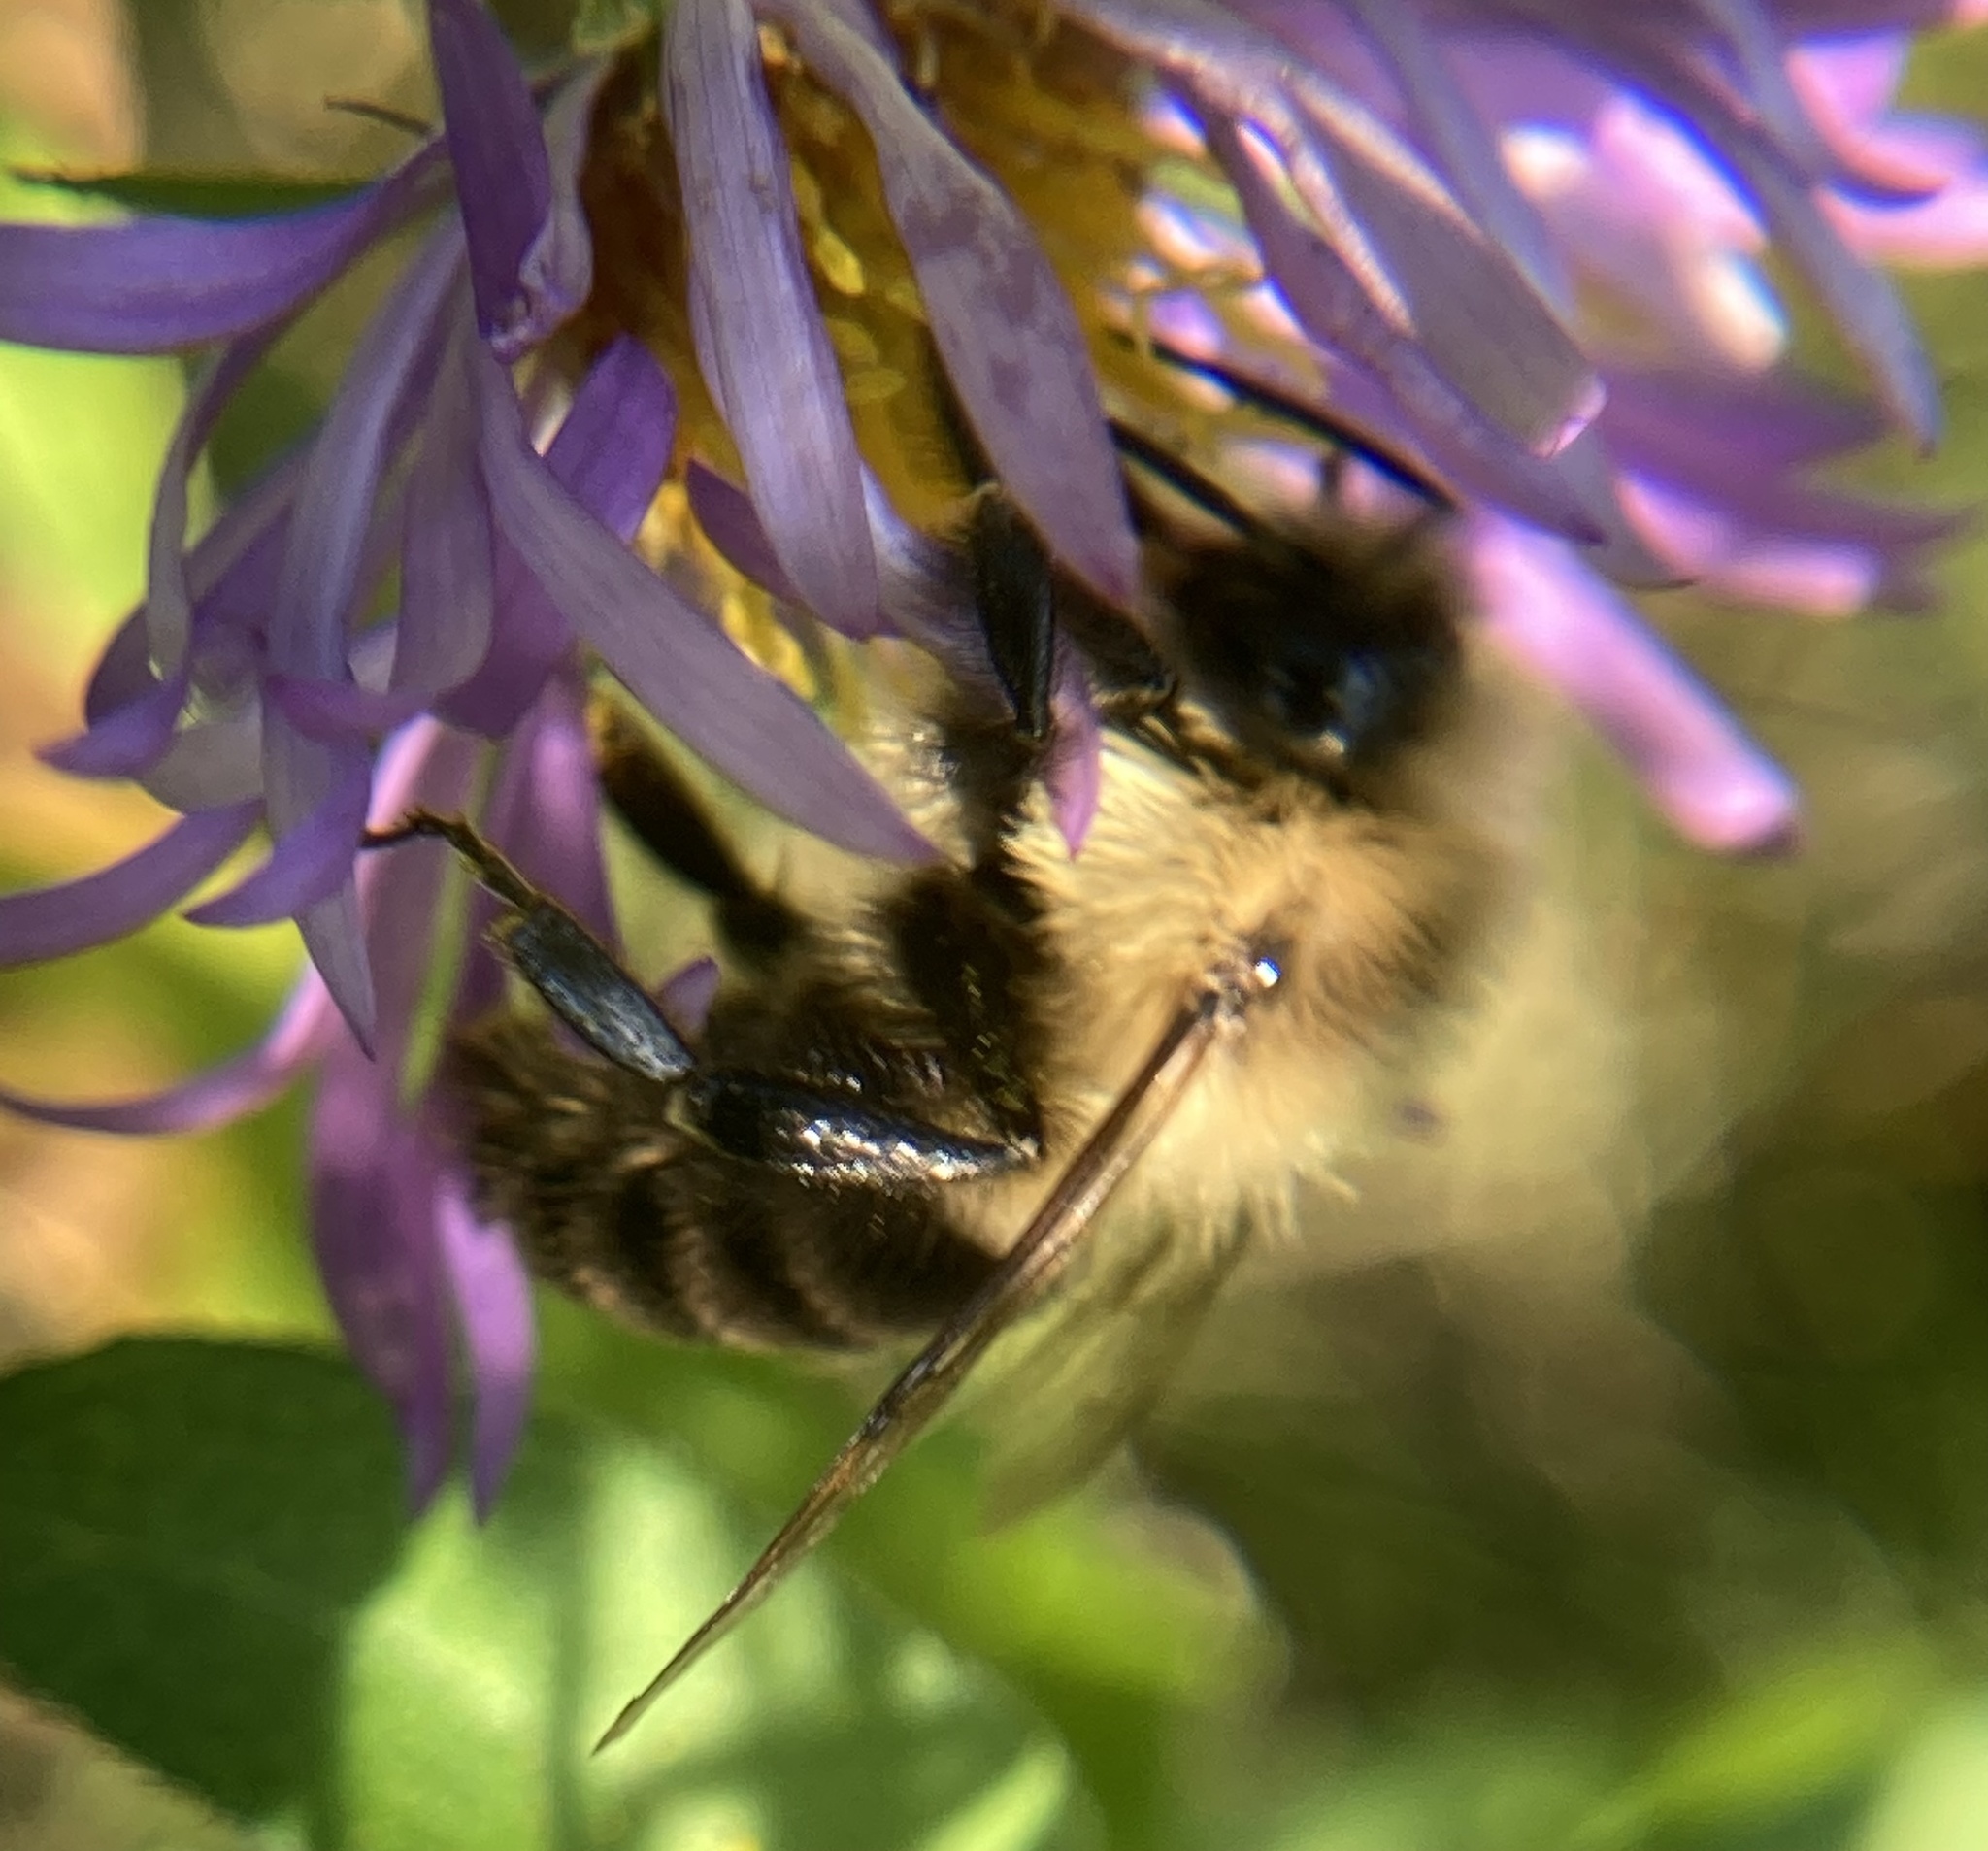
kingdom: Animalia
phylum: Arthropoda
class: Insecta
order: Hymenoptera
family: Apidae
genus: Bombus
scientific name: Bombus impatiens
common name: Common eastern bumble bee
